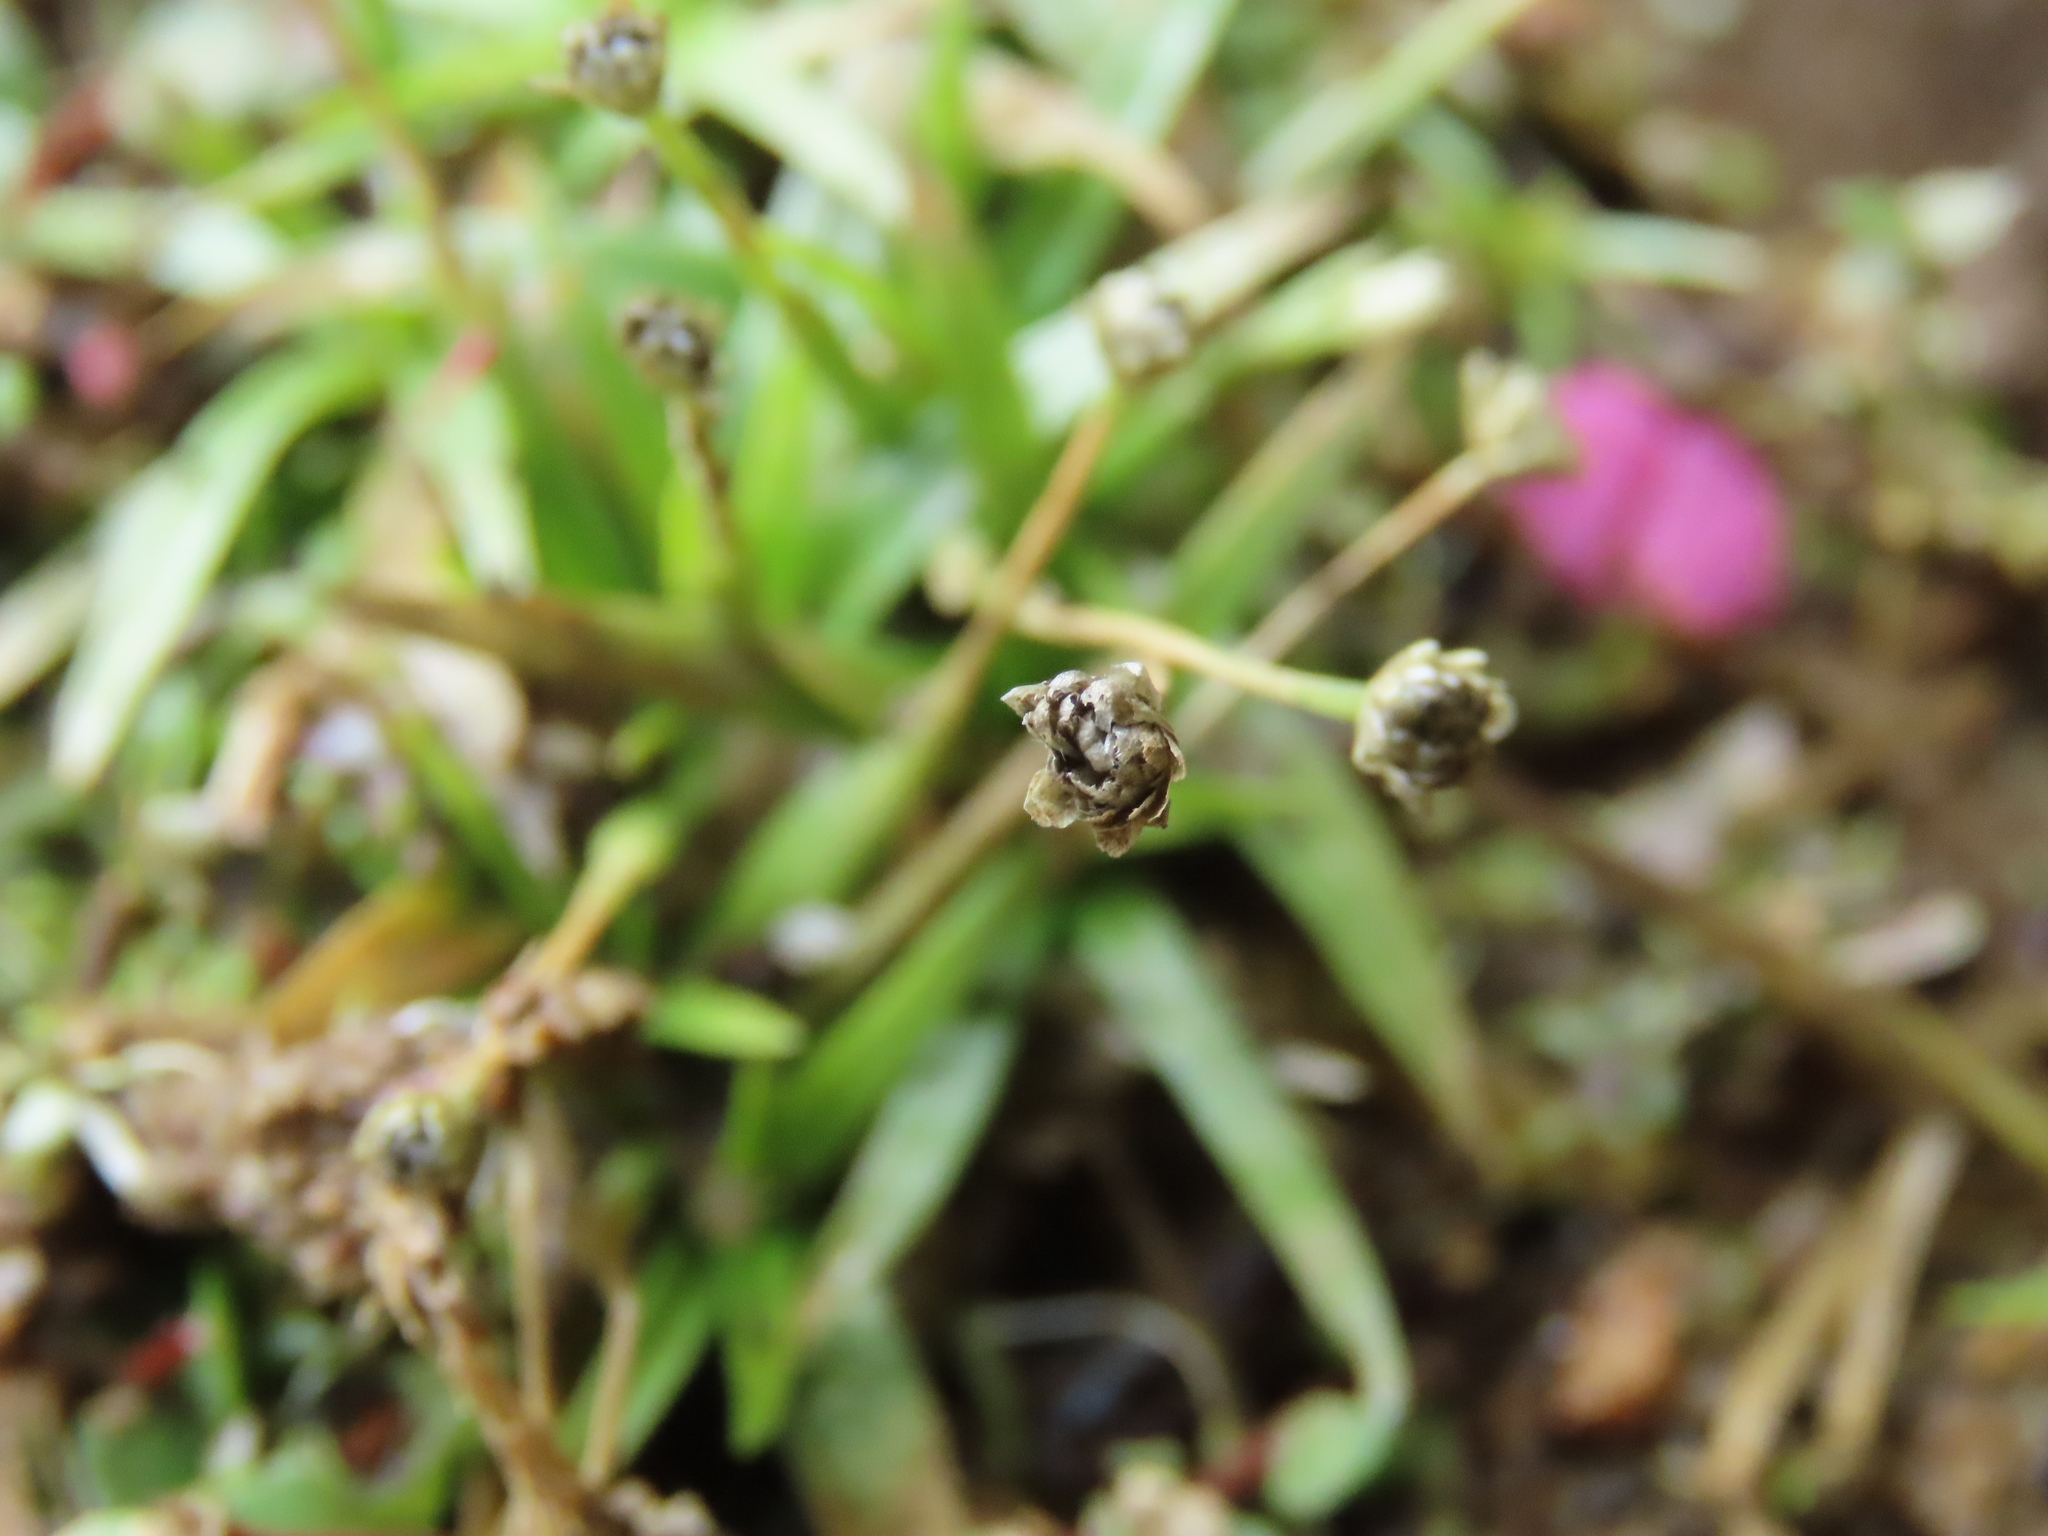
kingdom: Plantae
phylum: Tracheophyta
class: Liliopsida
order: Poales
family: Eriocaulaceae
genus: Eriocaulon
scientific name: Eriocaulon truncatum
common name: Short pipe-wort
